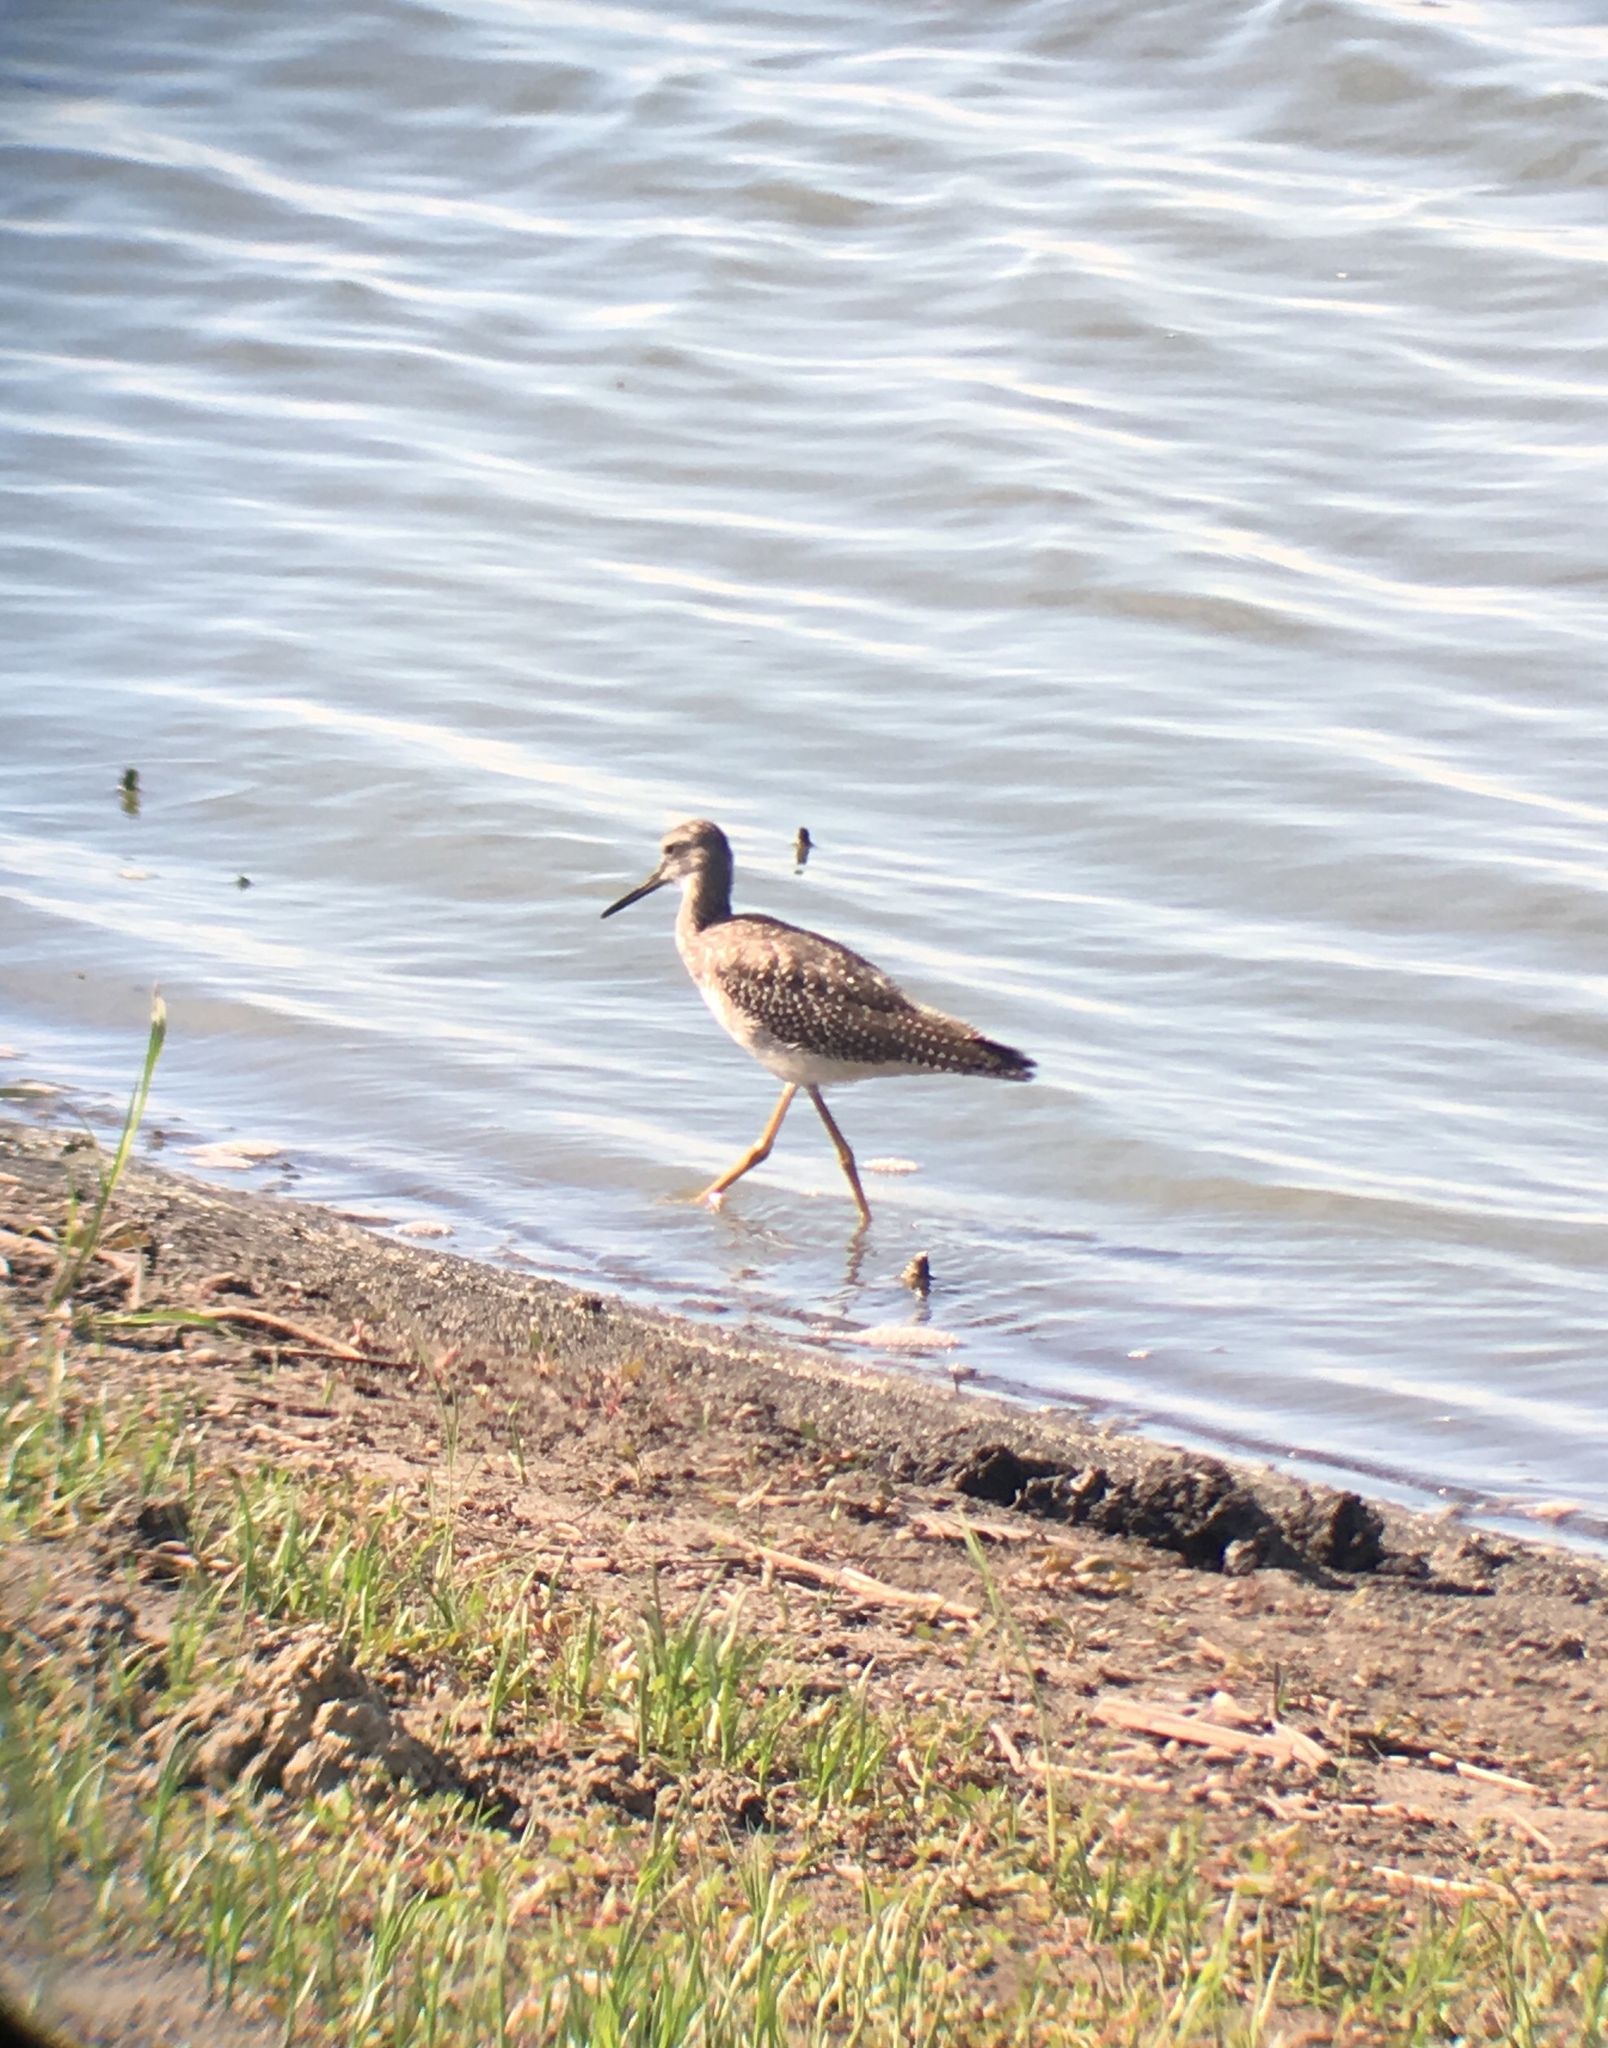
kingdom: Animalia
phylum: Chordata
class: Aves
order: Charadriiformes
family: Scolopacidae
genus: Tringa
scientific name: Tringa melanoleuca
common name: Greater yellowlegs
